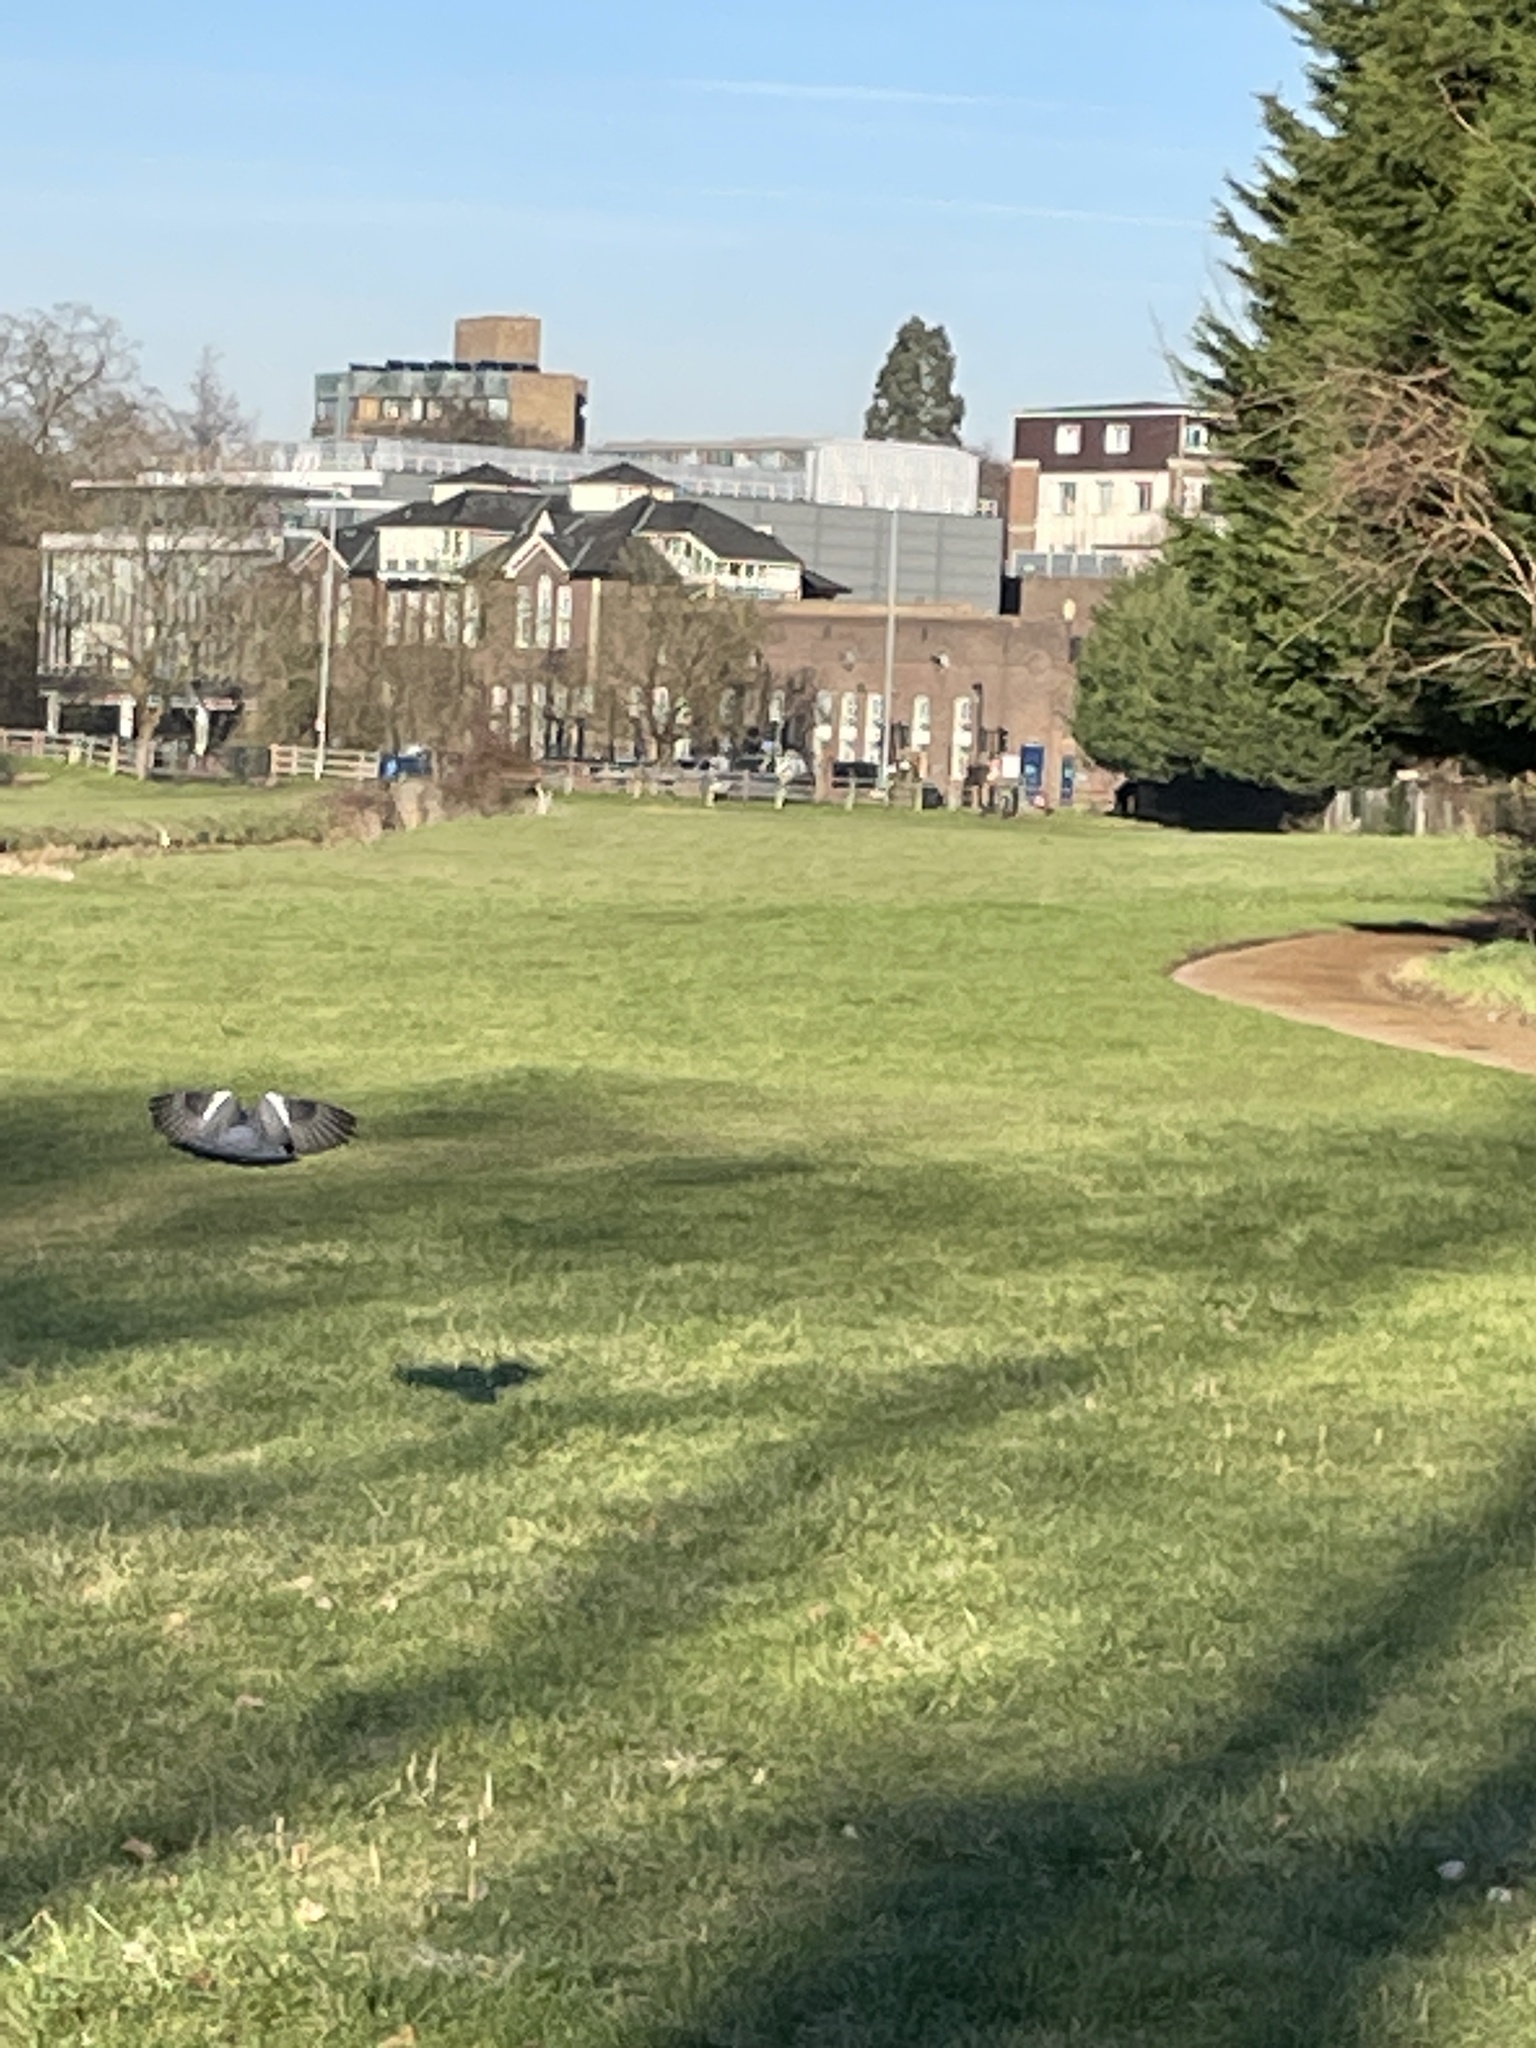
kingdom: Animalia
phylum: Chordata
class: Aves
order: Columbiformes
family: Columbidae
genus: Columba
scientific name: Columba palumbus
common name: Common wood pigeon
